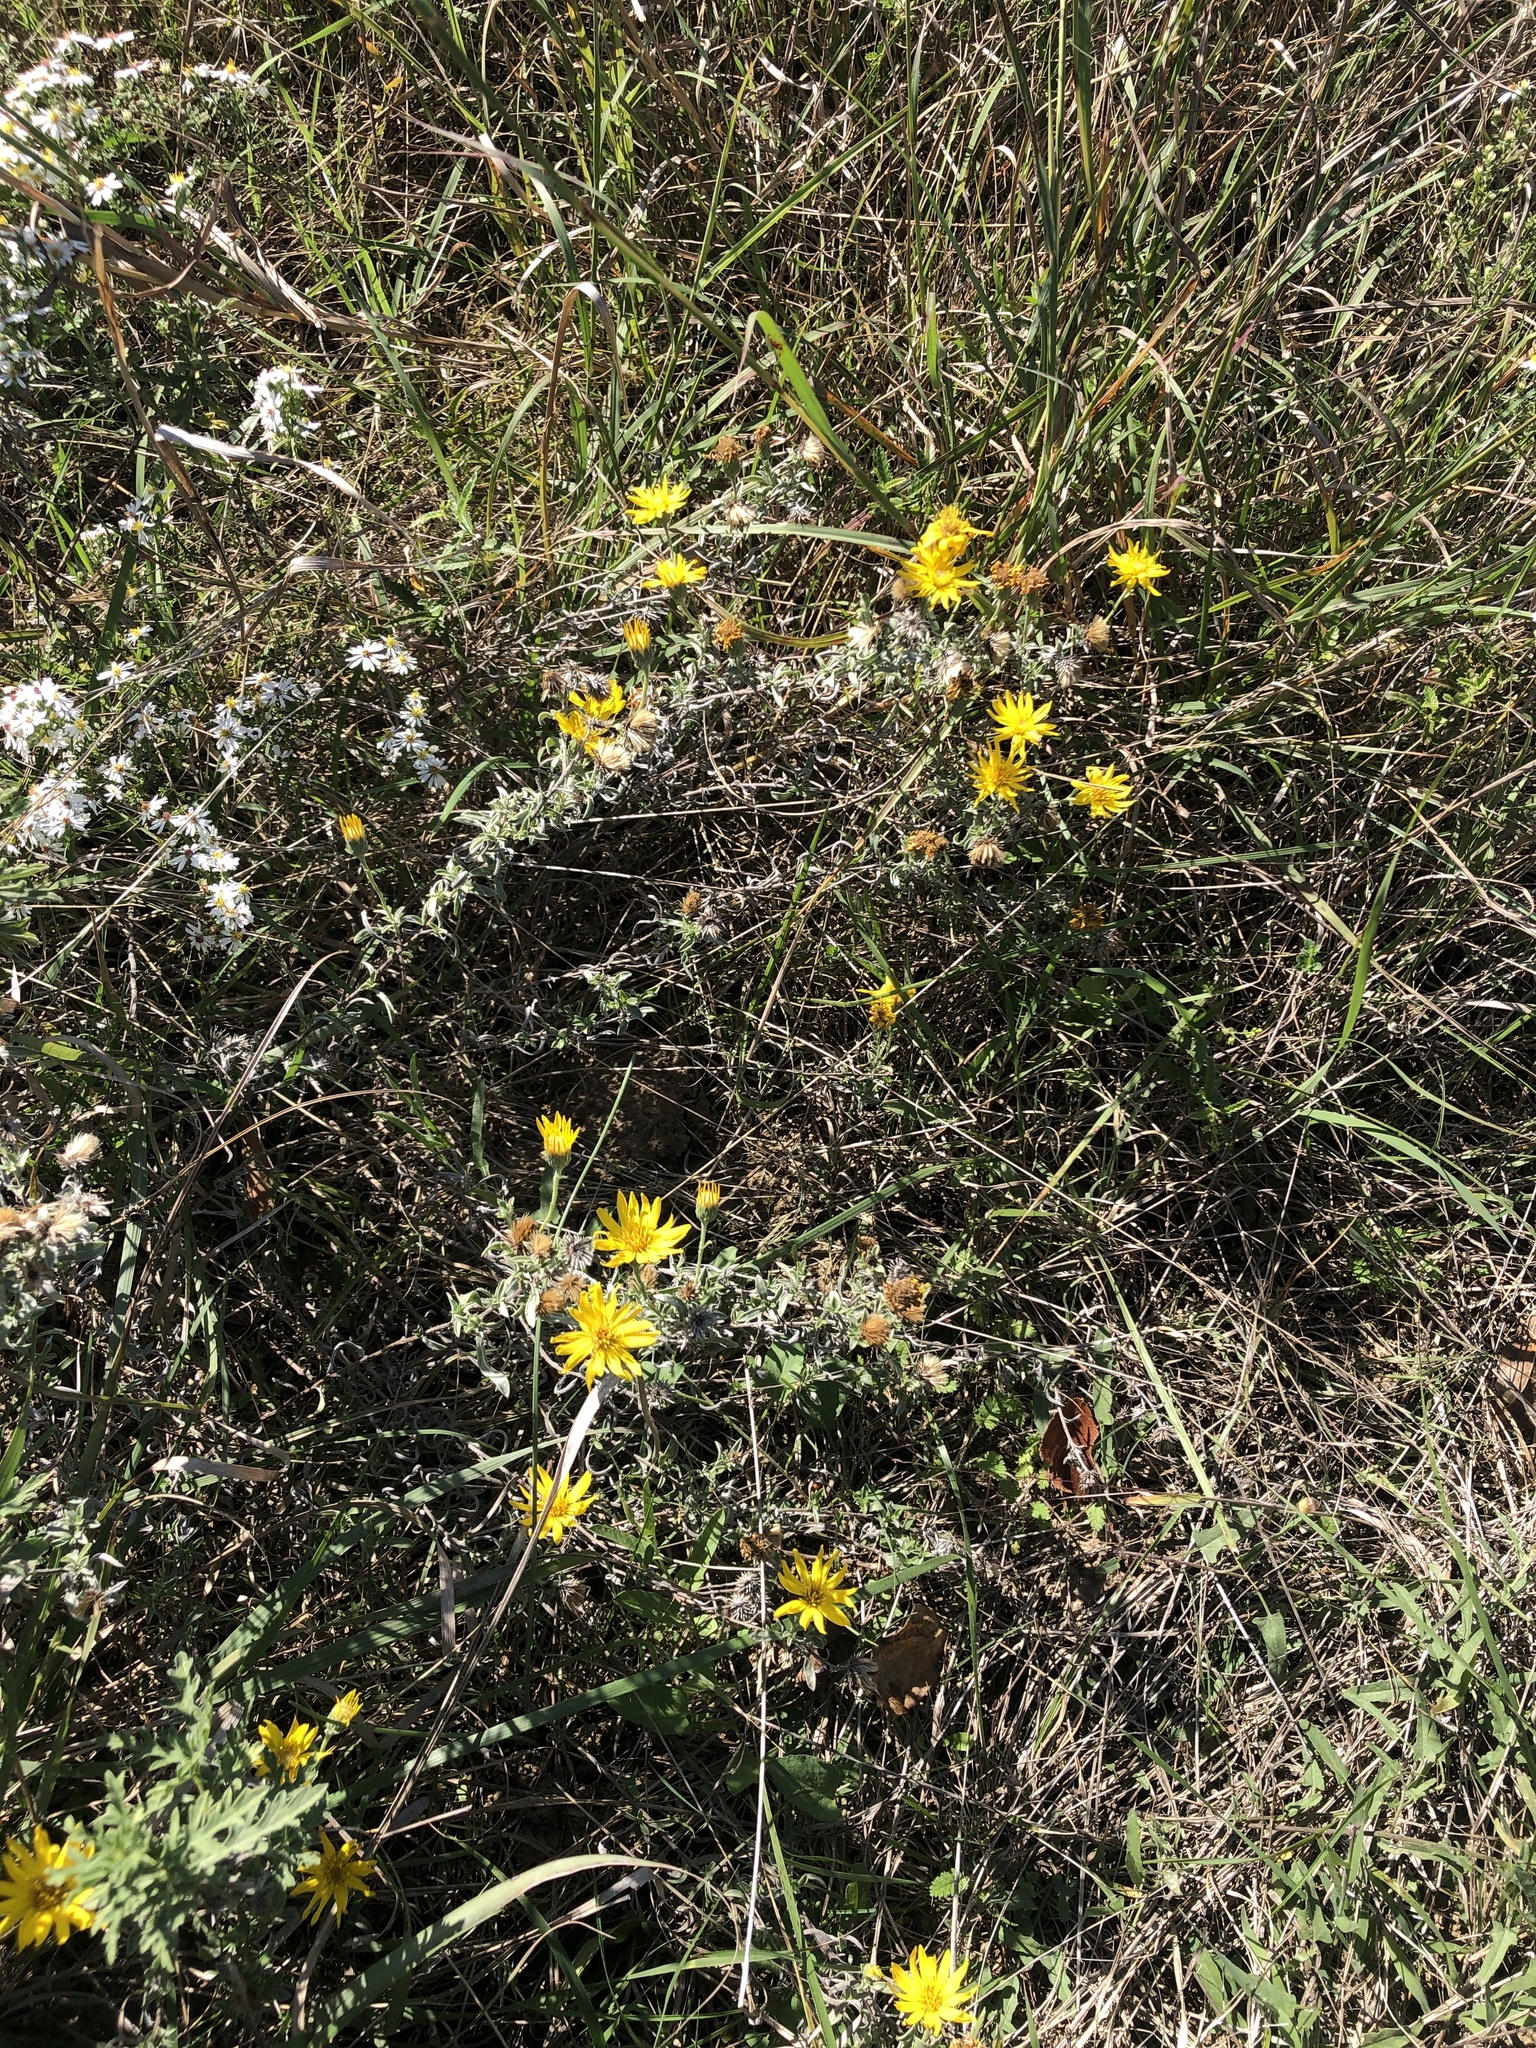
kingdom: Plantae
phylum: Tracheophyta
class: Magnoliopsida
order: Asterales
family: Asteraceae
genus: Heterotheca
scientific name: Heterotheca canescens
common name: Hoary golden-aster
